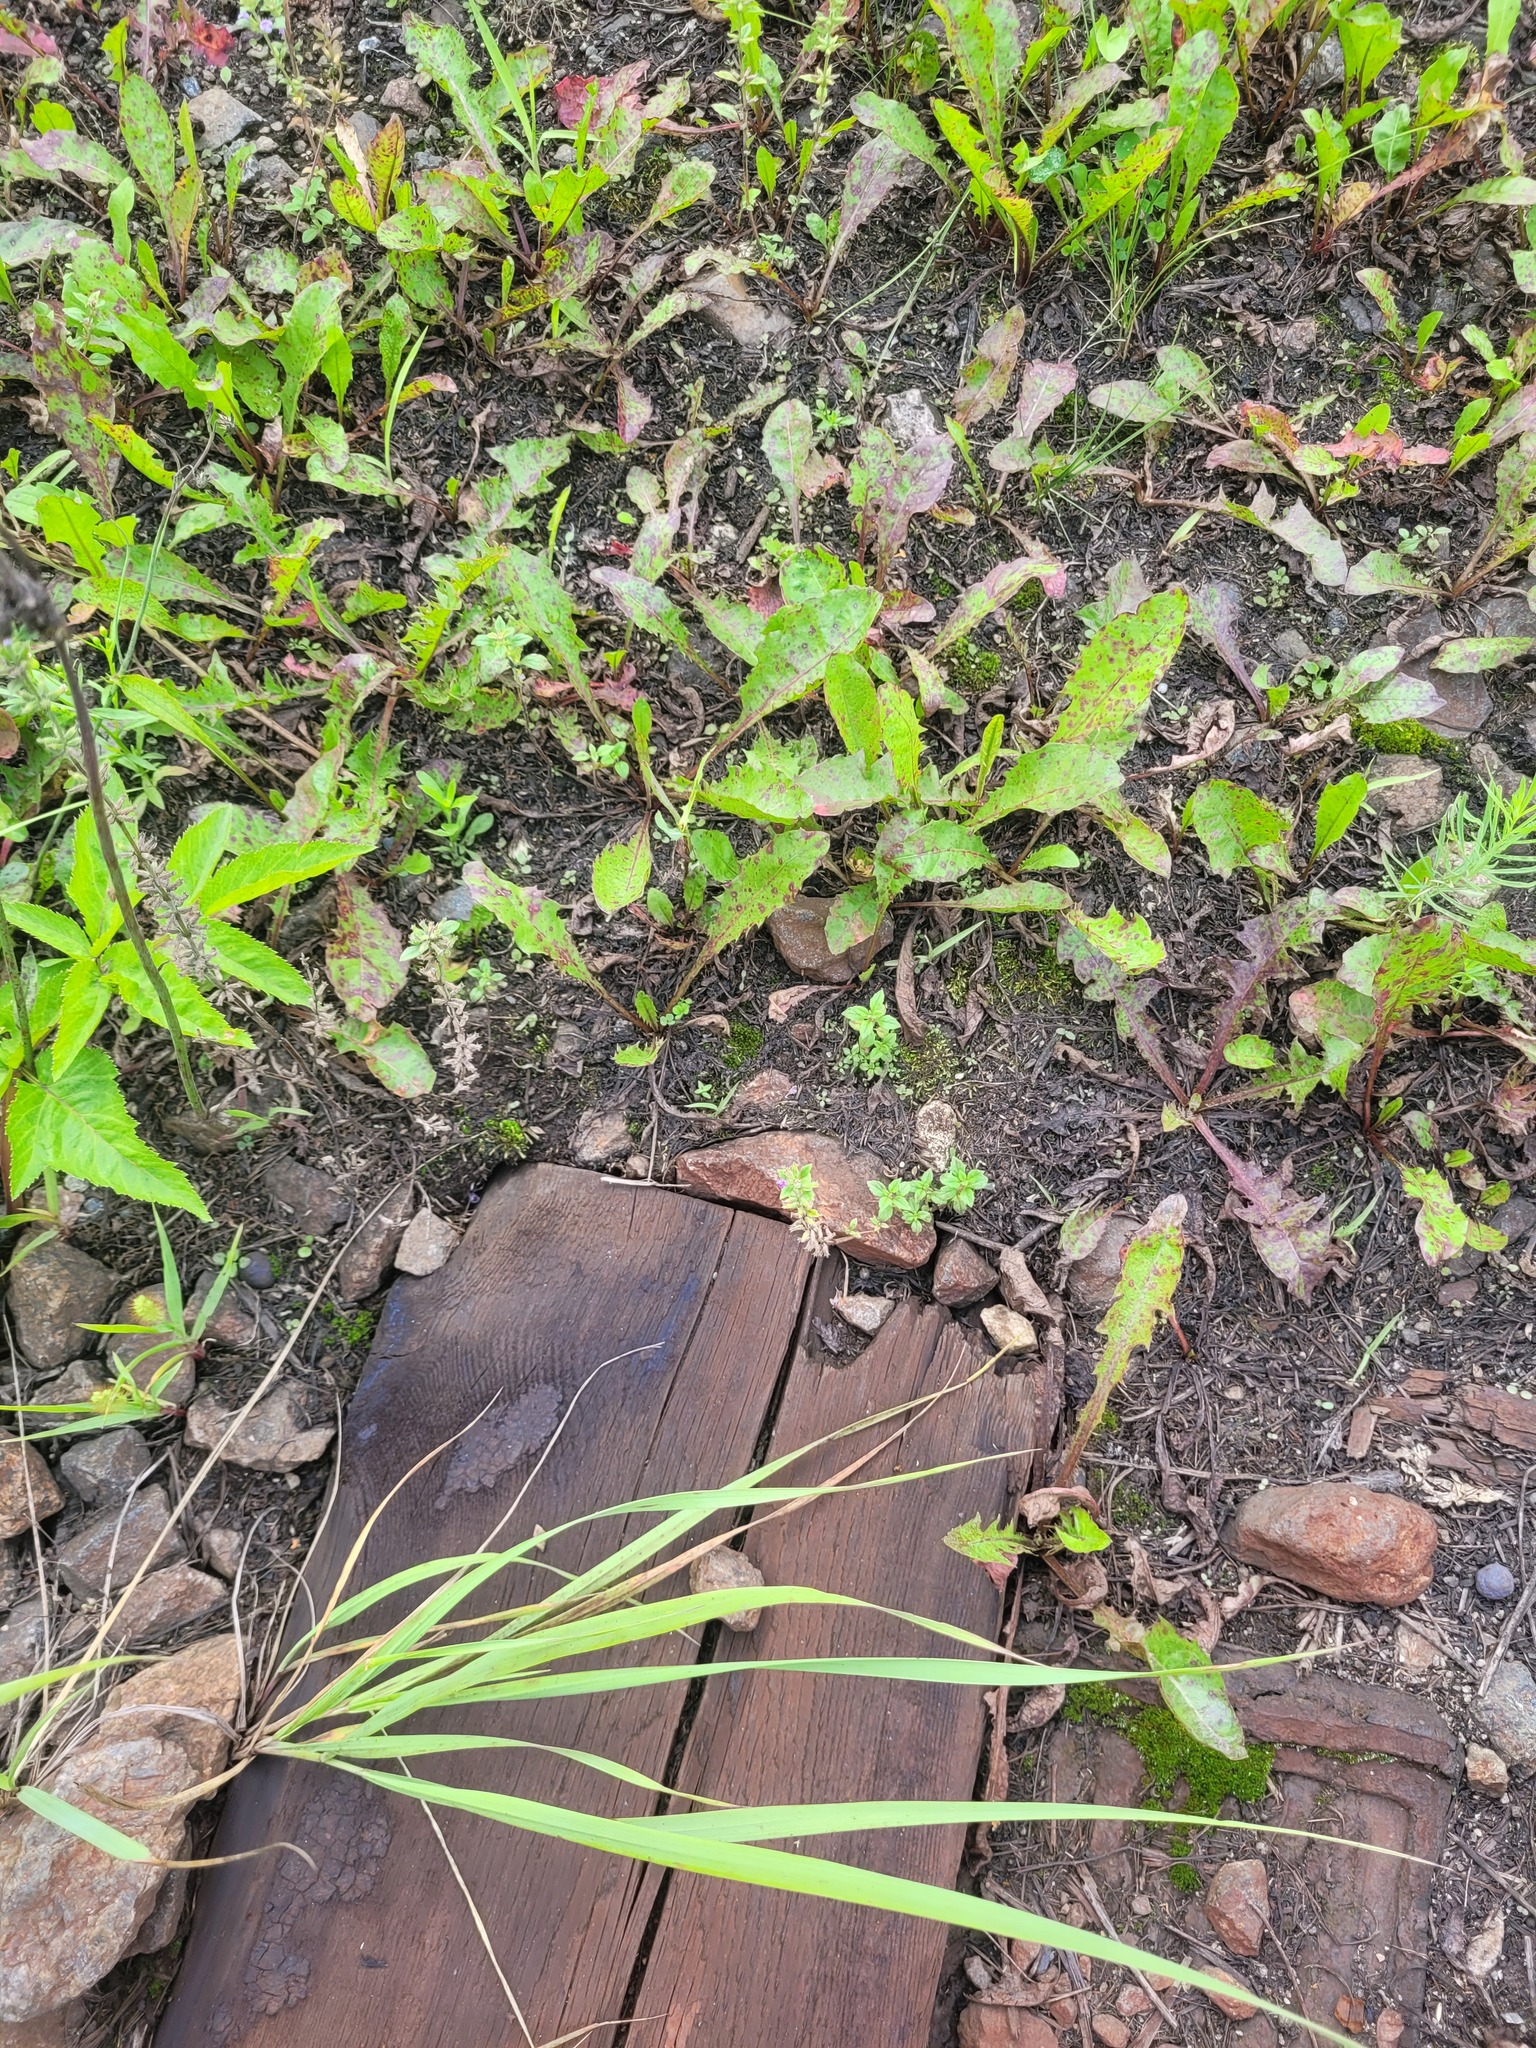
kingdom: Plantae
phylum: Tracheophyta
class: Magnoliopsida
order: Lamiales
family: Lamiaceae
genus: Clinopodium
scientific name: Clinopodium acinos
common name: Basil thyme
